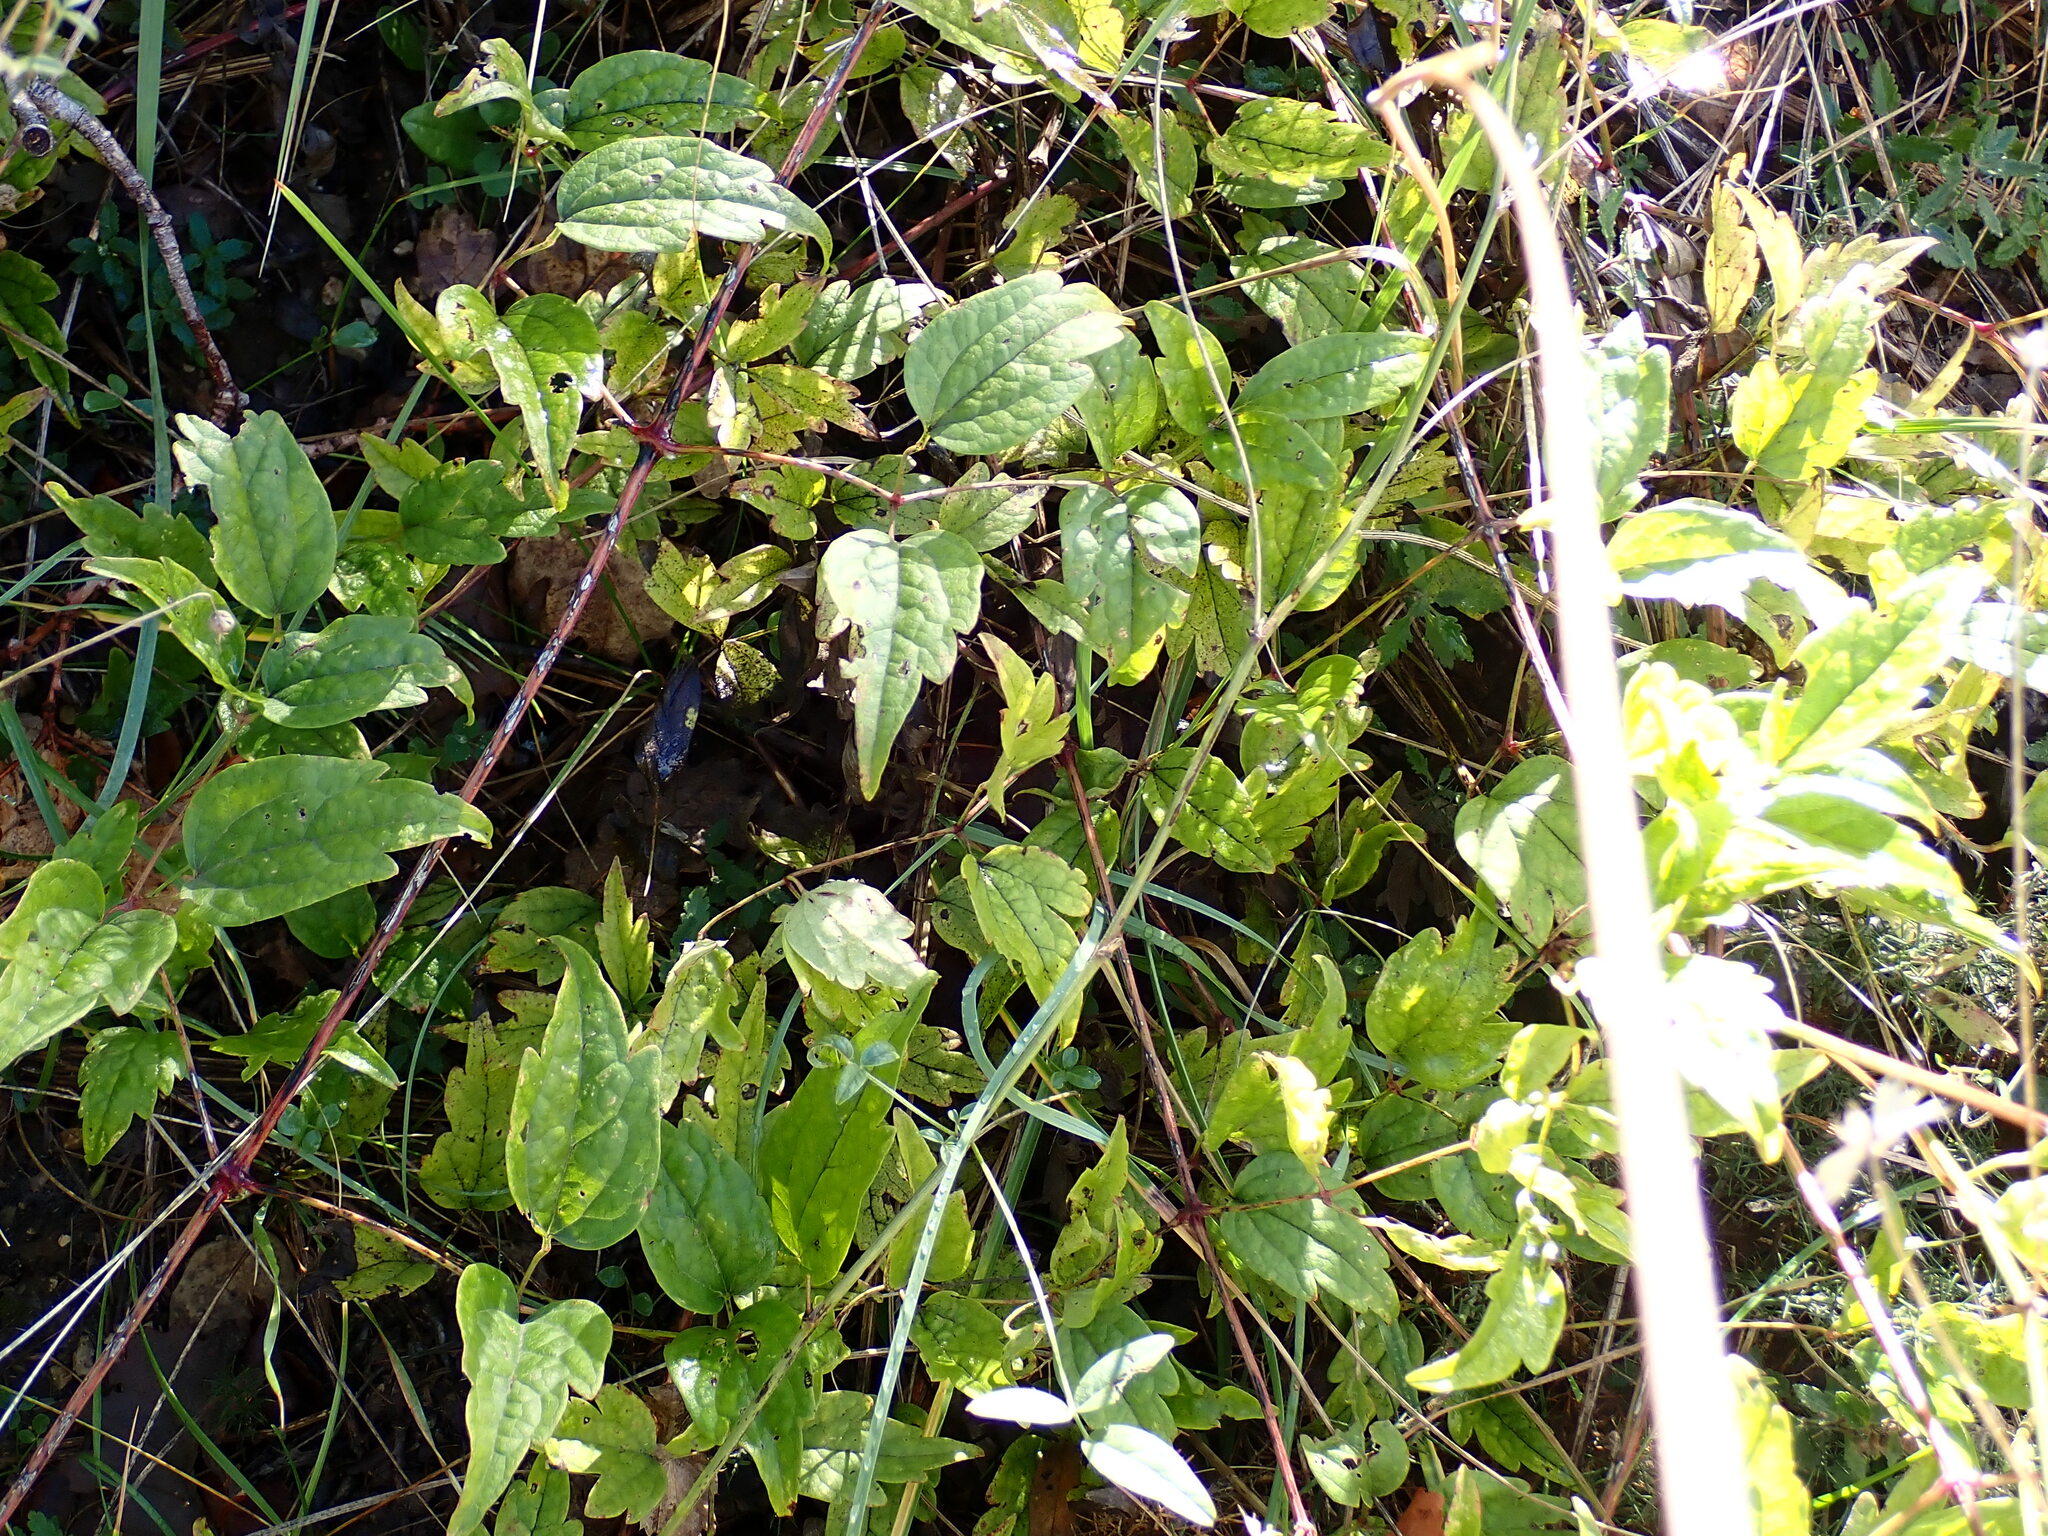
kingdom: Plantae
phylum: Tracheophyta
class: Magnoliopsida
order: Ranunculales
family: Ranunculaceae
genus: Clematis
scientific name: Clematis vitalba
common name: Evergreen clematis
